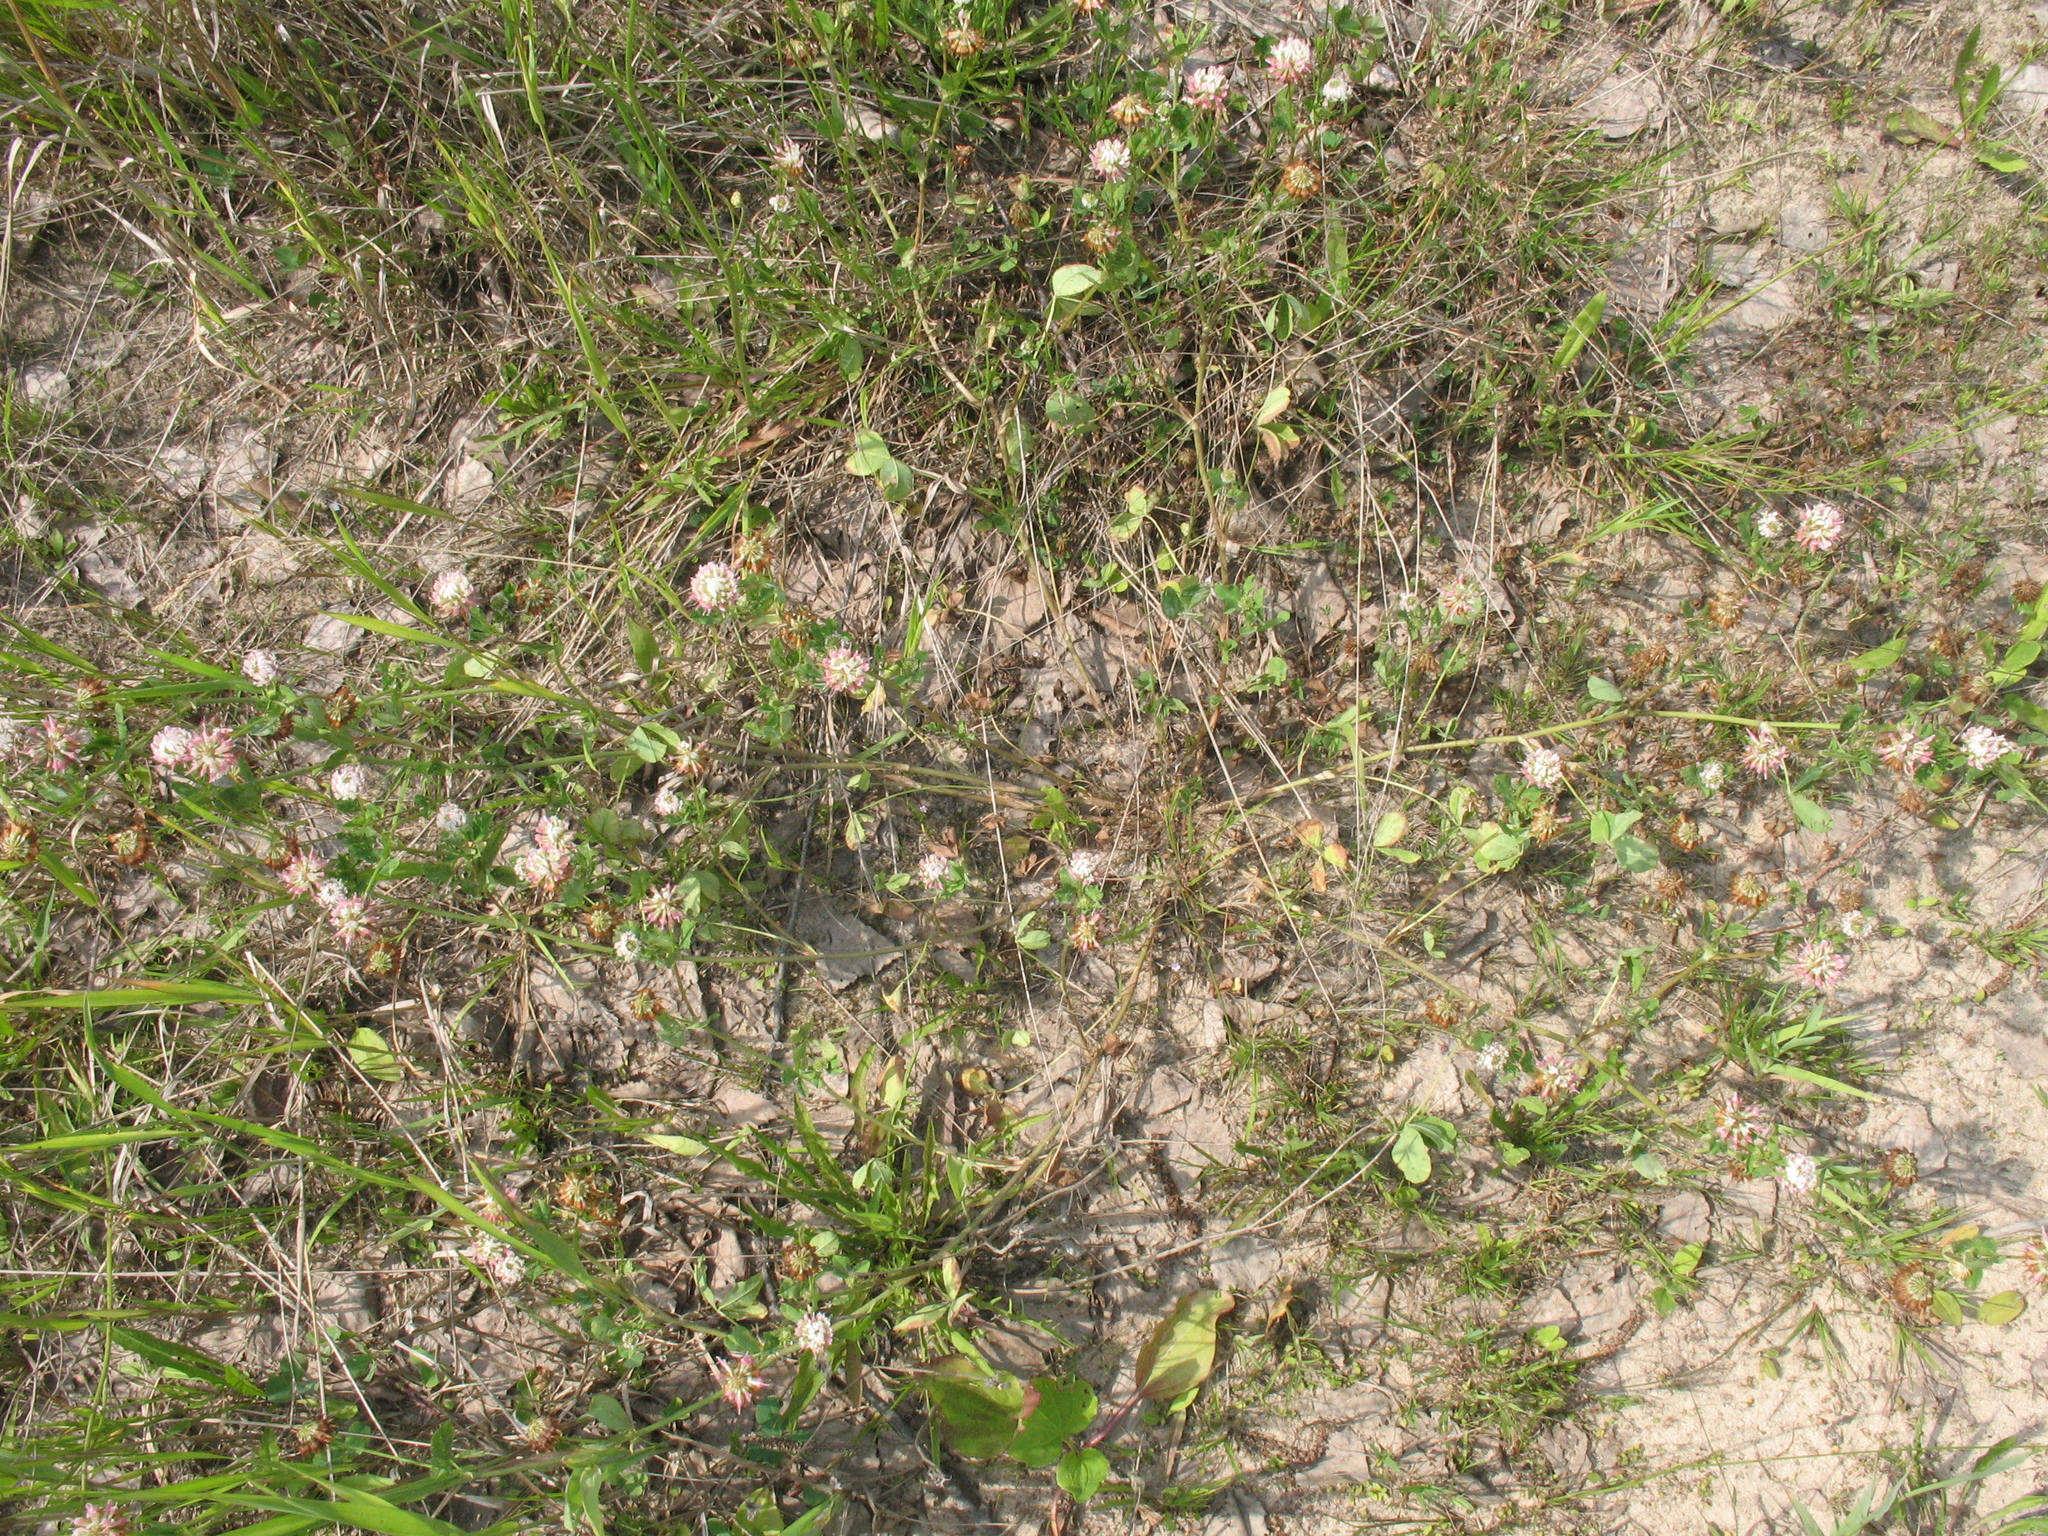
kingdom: Plantae
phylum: Tracheophyta
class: Magnoliopsida
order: Fabales
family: Fabaceae
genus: Trifolium
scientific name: Trifolium hybridum
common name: Alsike clover
